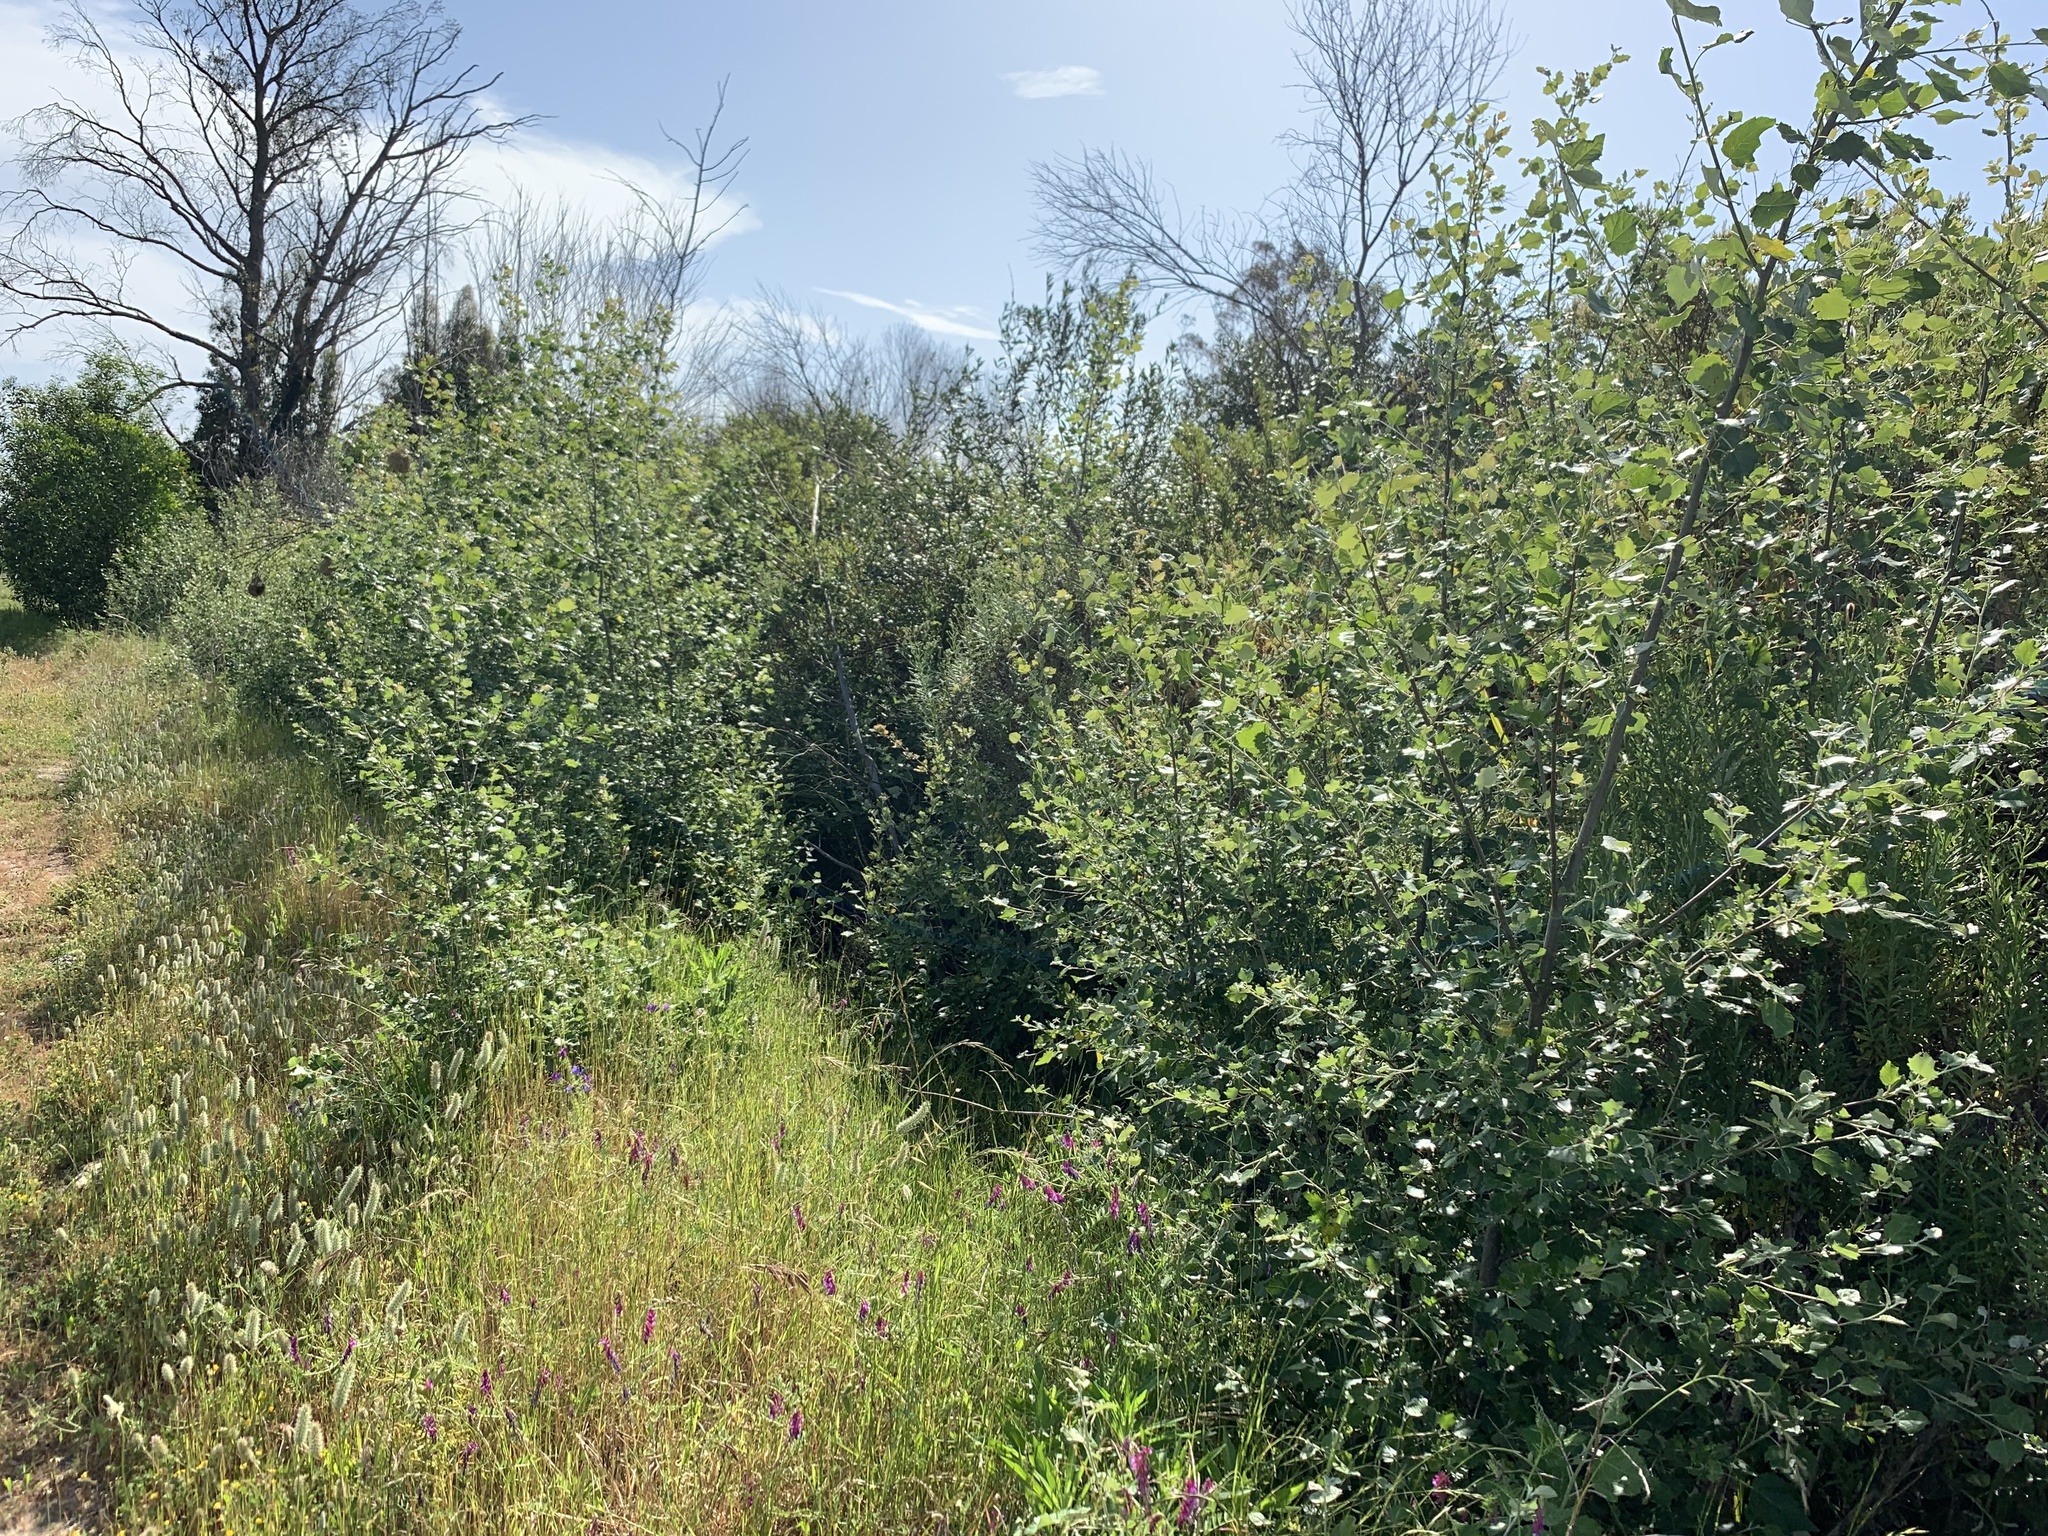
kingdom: Plantae
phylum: Tracheophyta
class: Magnoliopsida
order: Malpighiales
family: Salicaceae
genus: Populus
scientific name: Populus canescens
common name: Gray poplar
